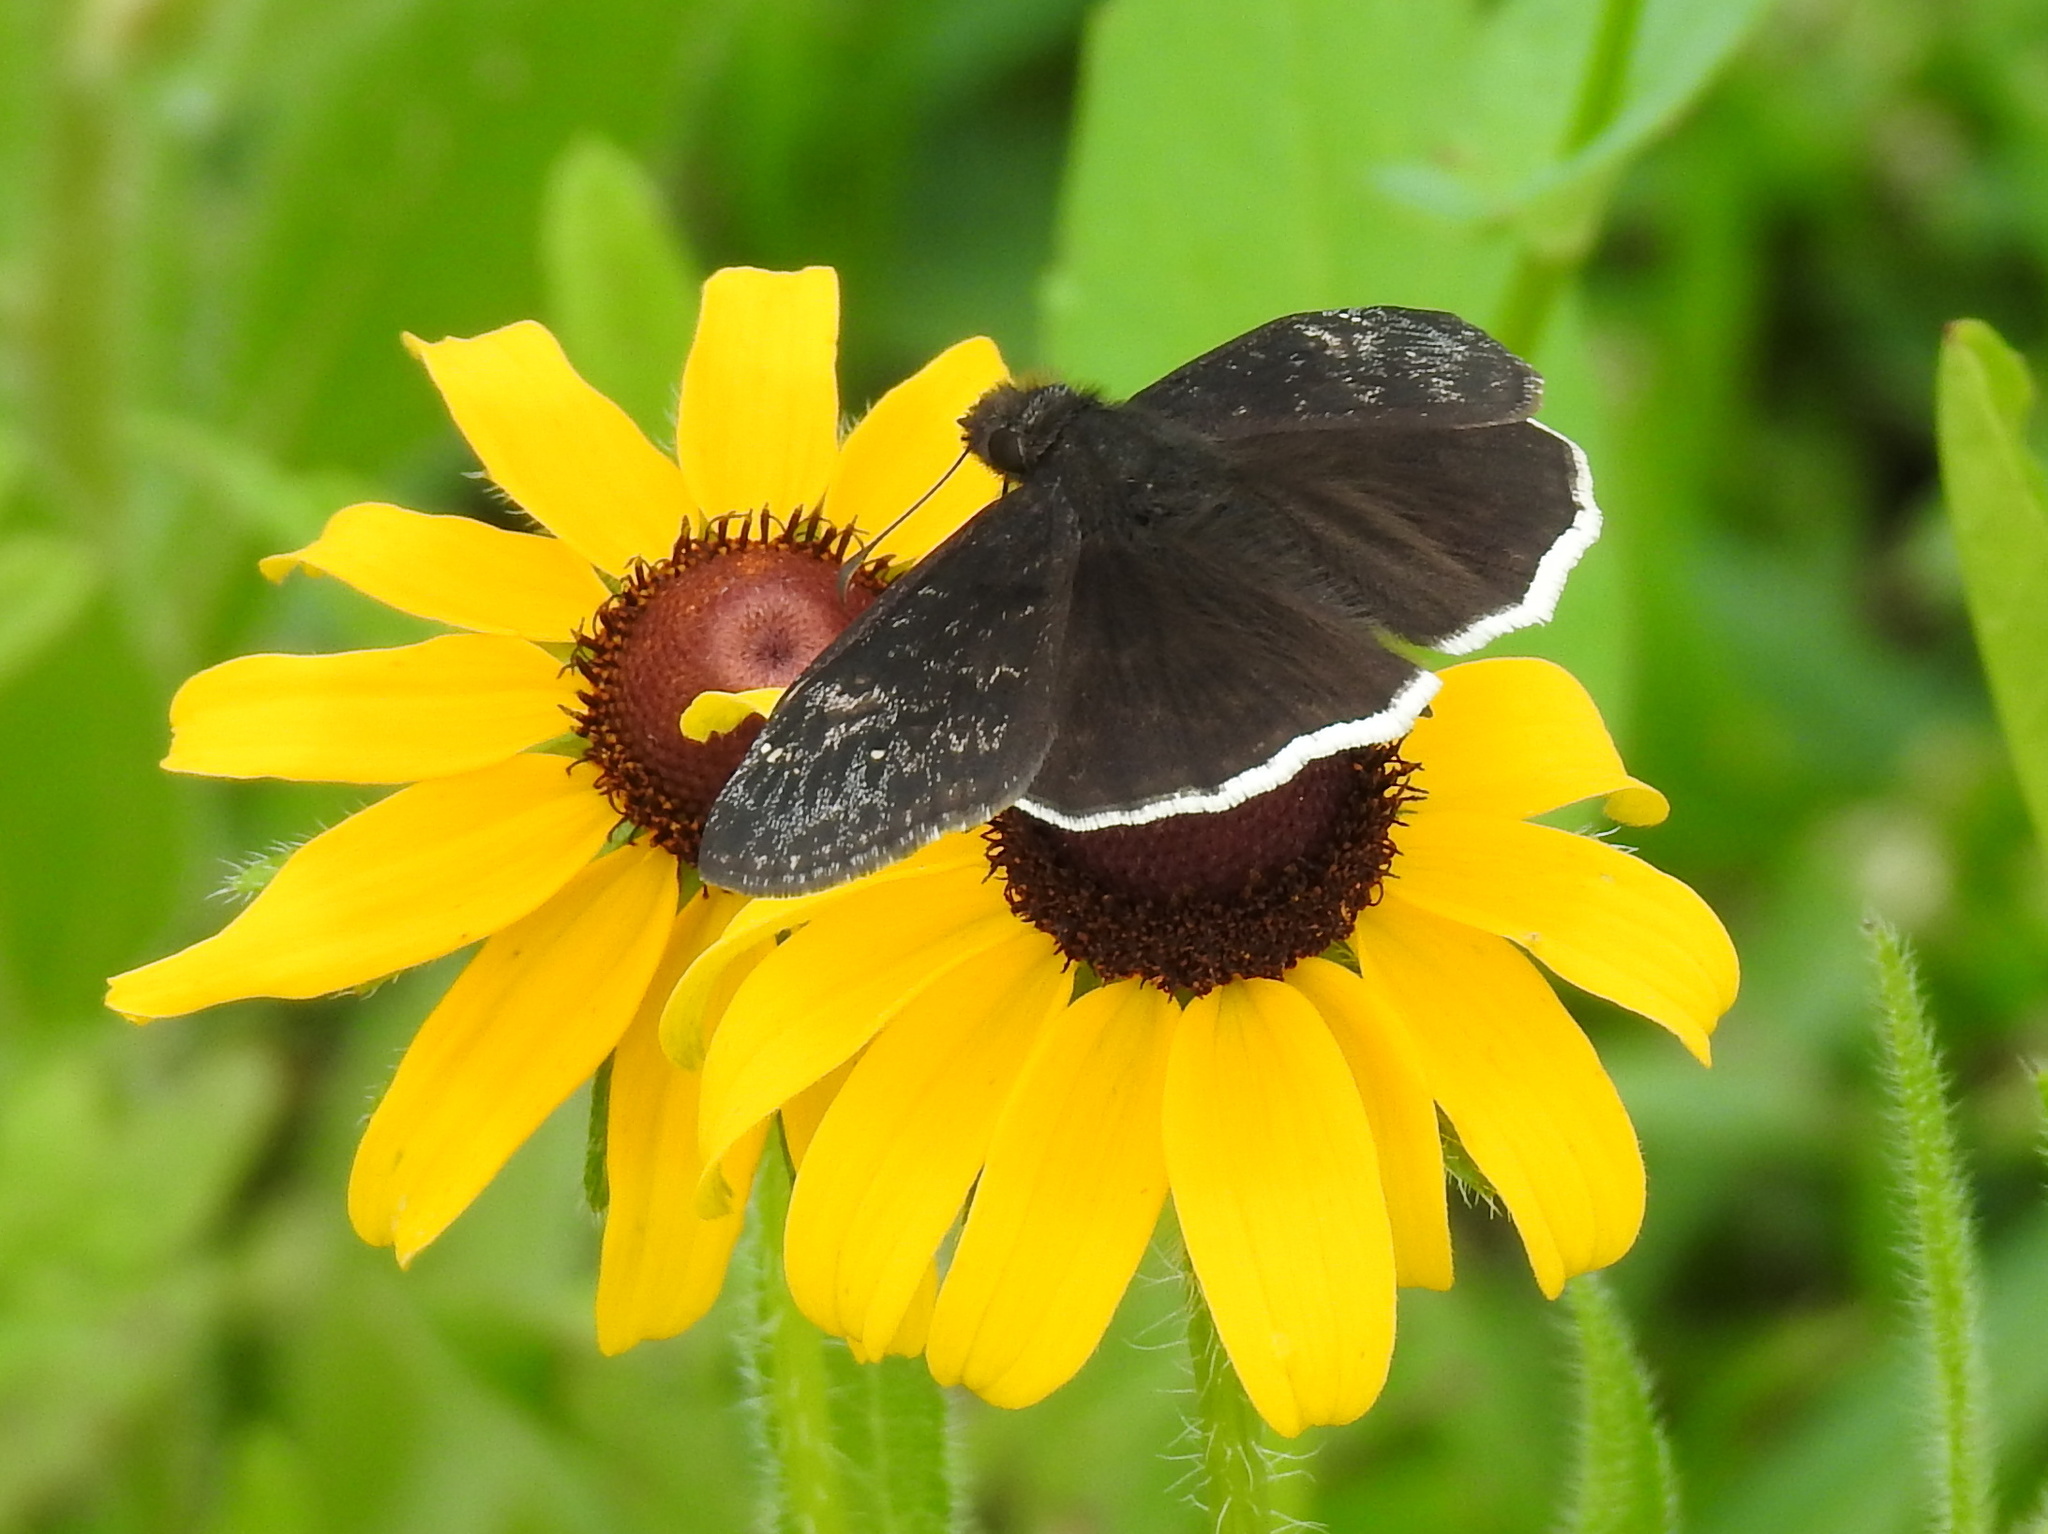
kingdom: Animalia
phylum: Arthropoda
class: Insecta
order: Lepidoptera
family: Hesperiidae
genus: Erynnis
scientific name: Erynnis funeralis
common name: Funereal duskywing
